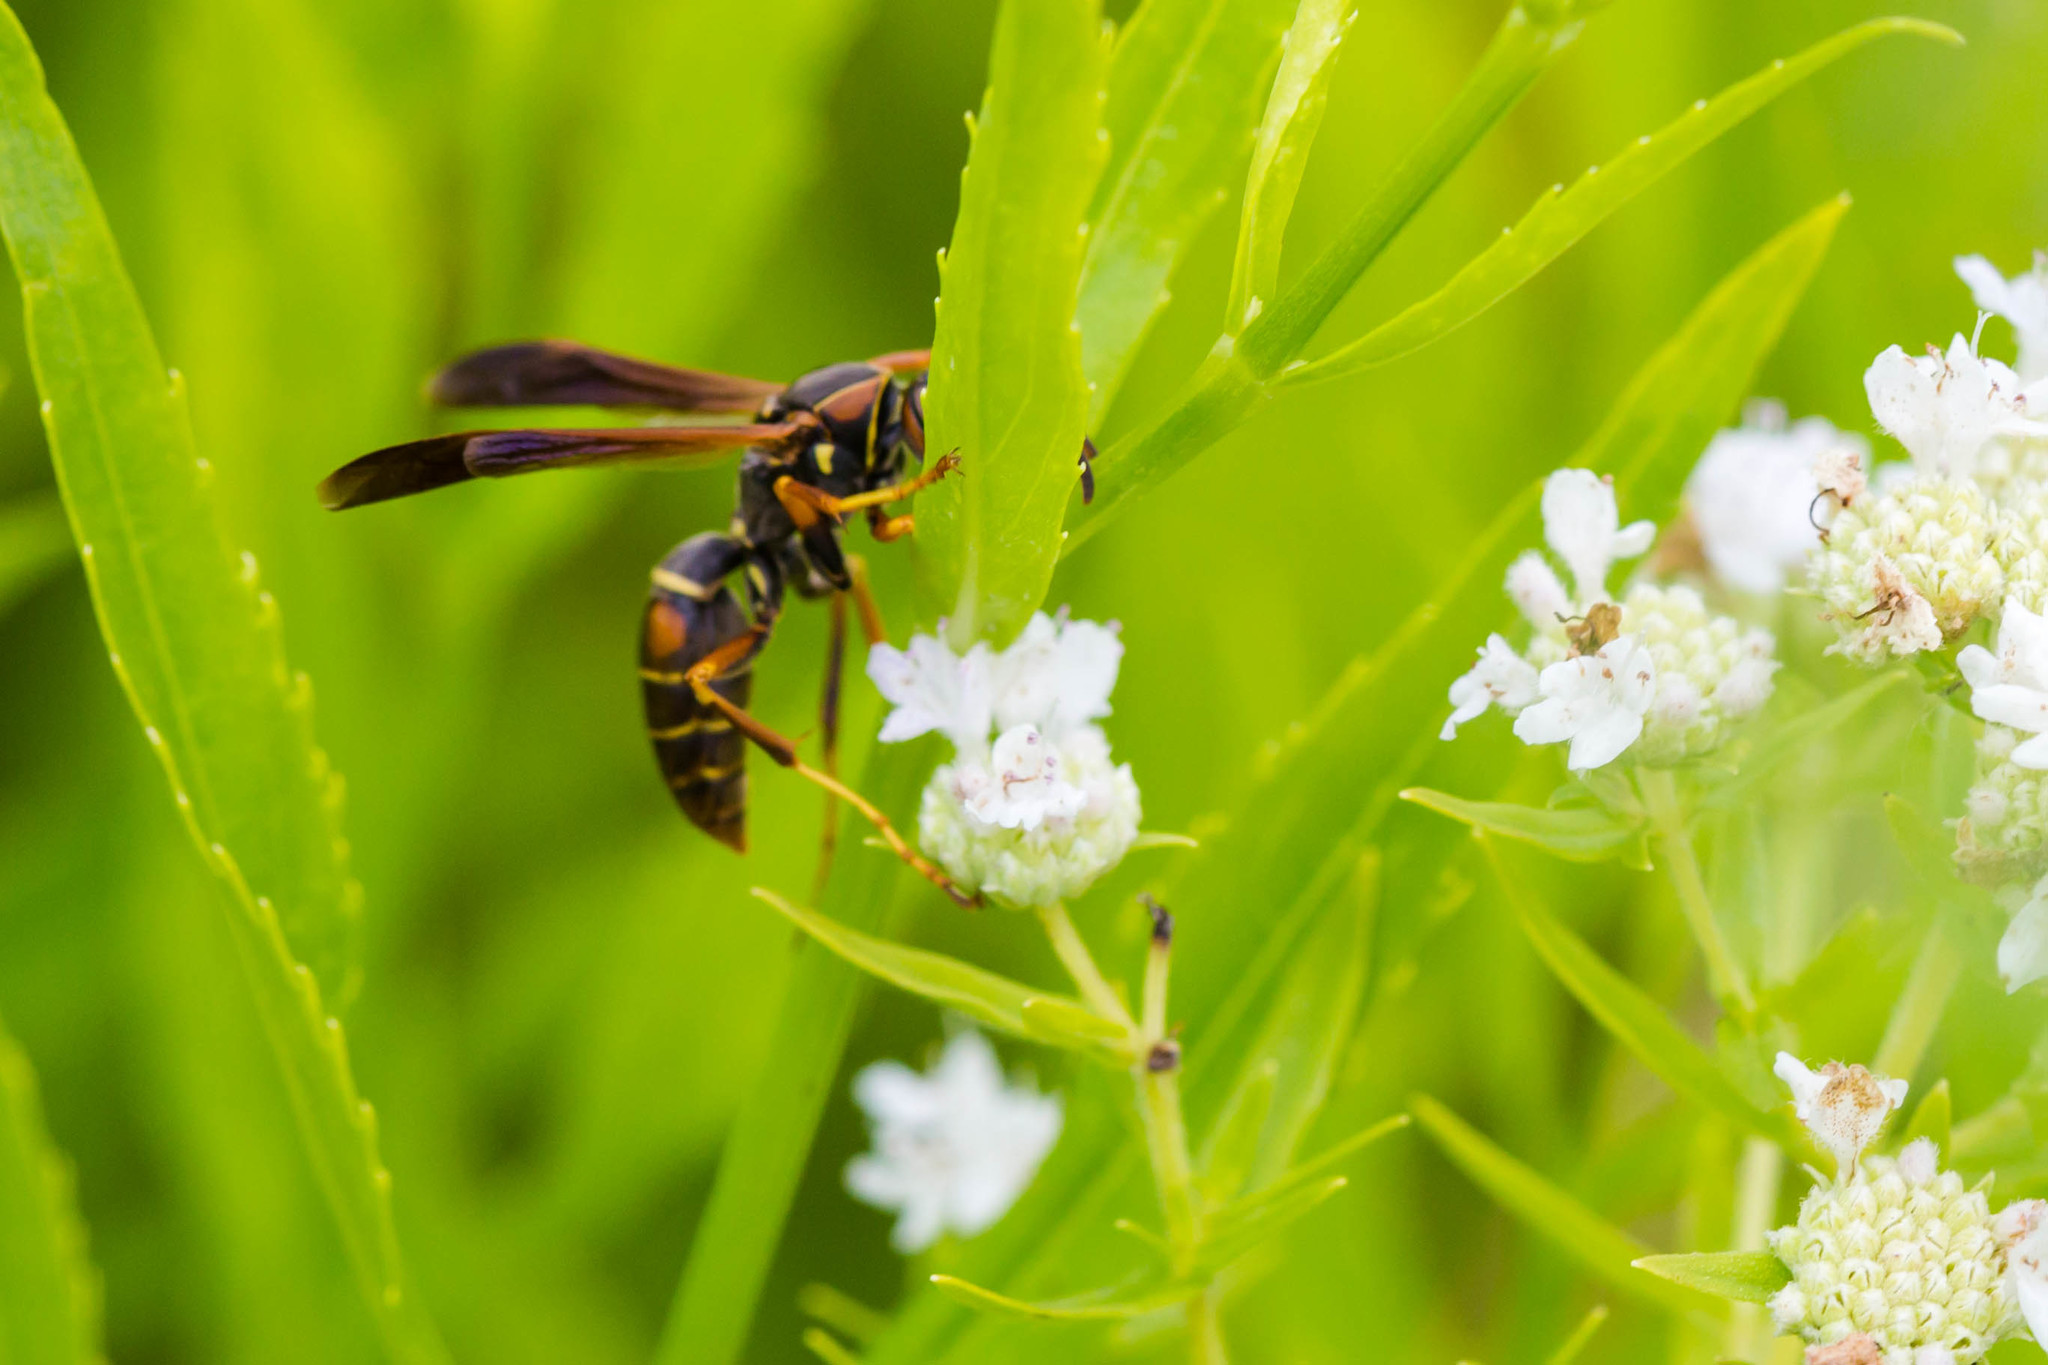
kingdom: Animalia
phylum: Arthropoda
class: Insecta
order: Hymenoptera
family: Eumenidae
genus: Polistes
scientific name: Polistes fuscatus
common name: Dark paper wasp
